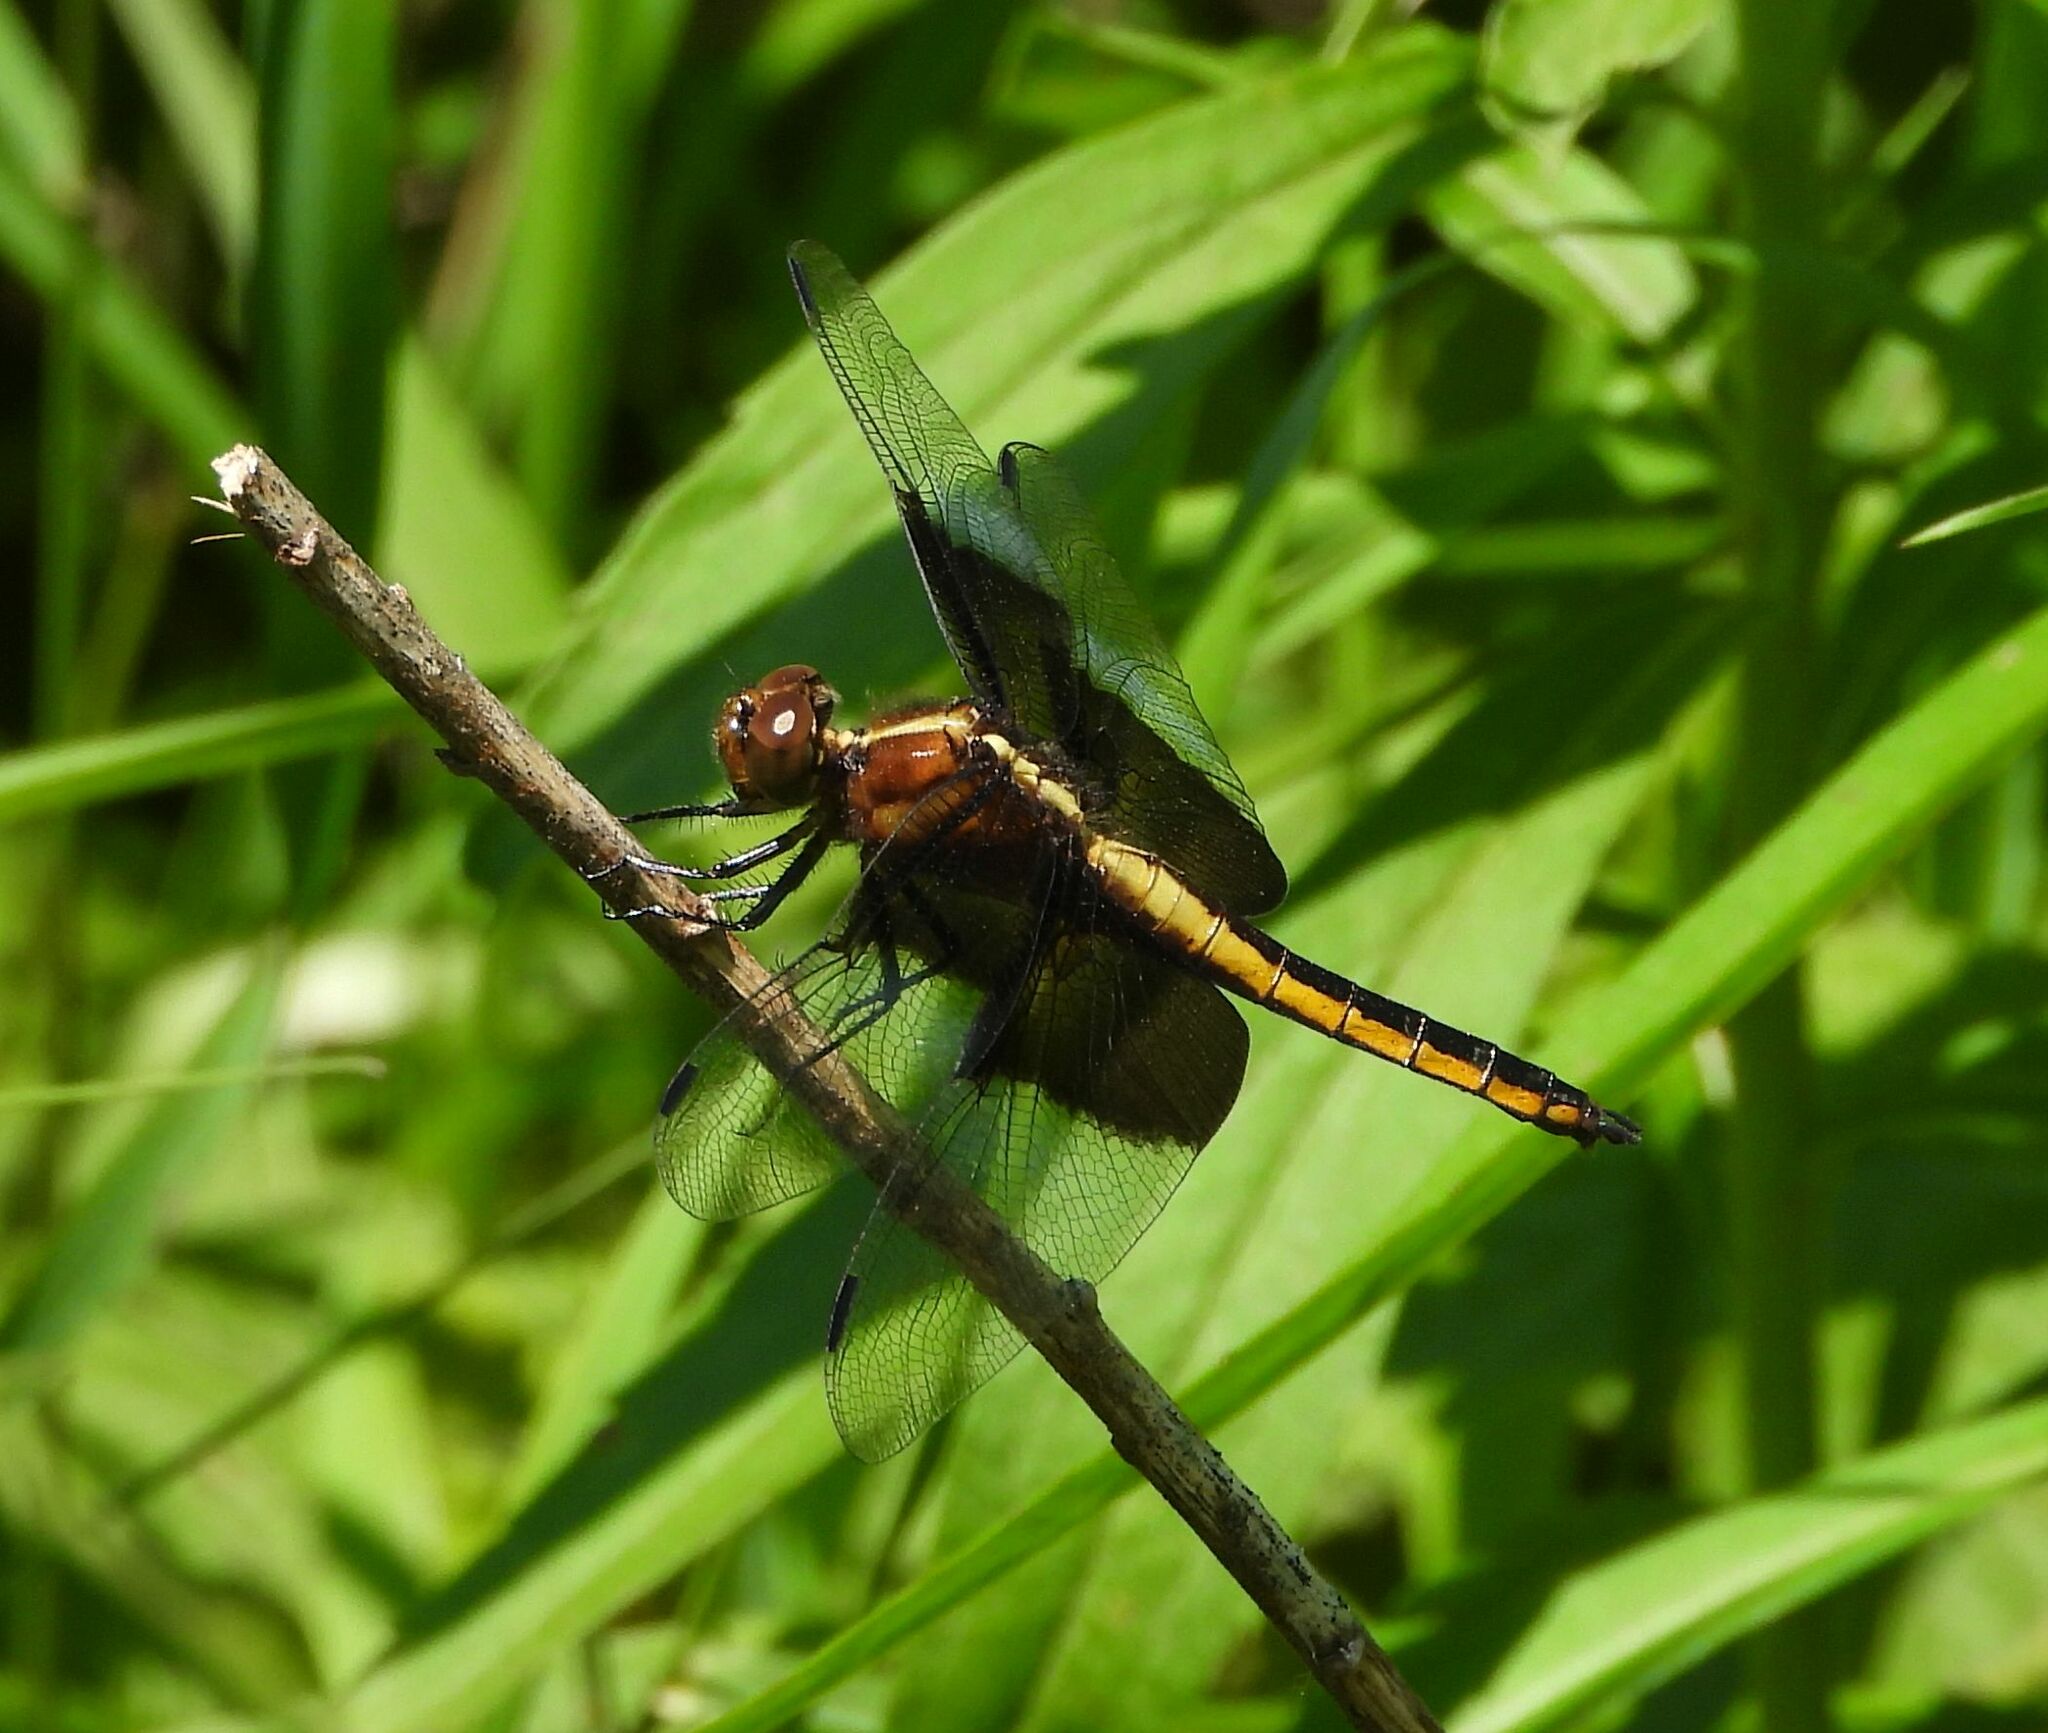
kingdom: Animalia
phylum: Arthropoda
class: Insecta
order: Odonata
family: Libellulidae
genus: Libellula
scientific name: Libellula luctuosa
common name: Widow skimmer
